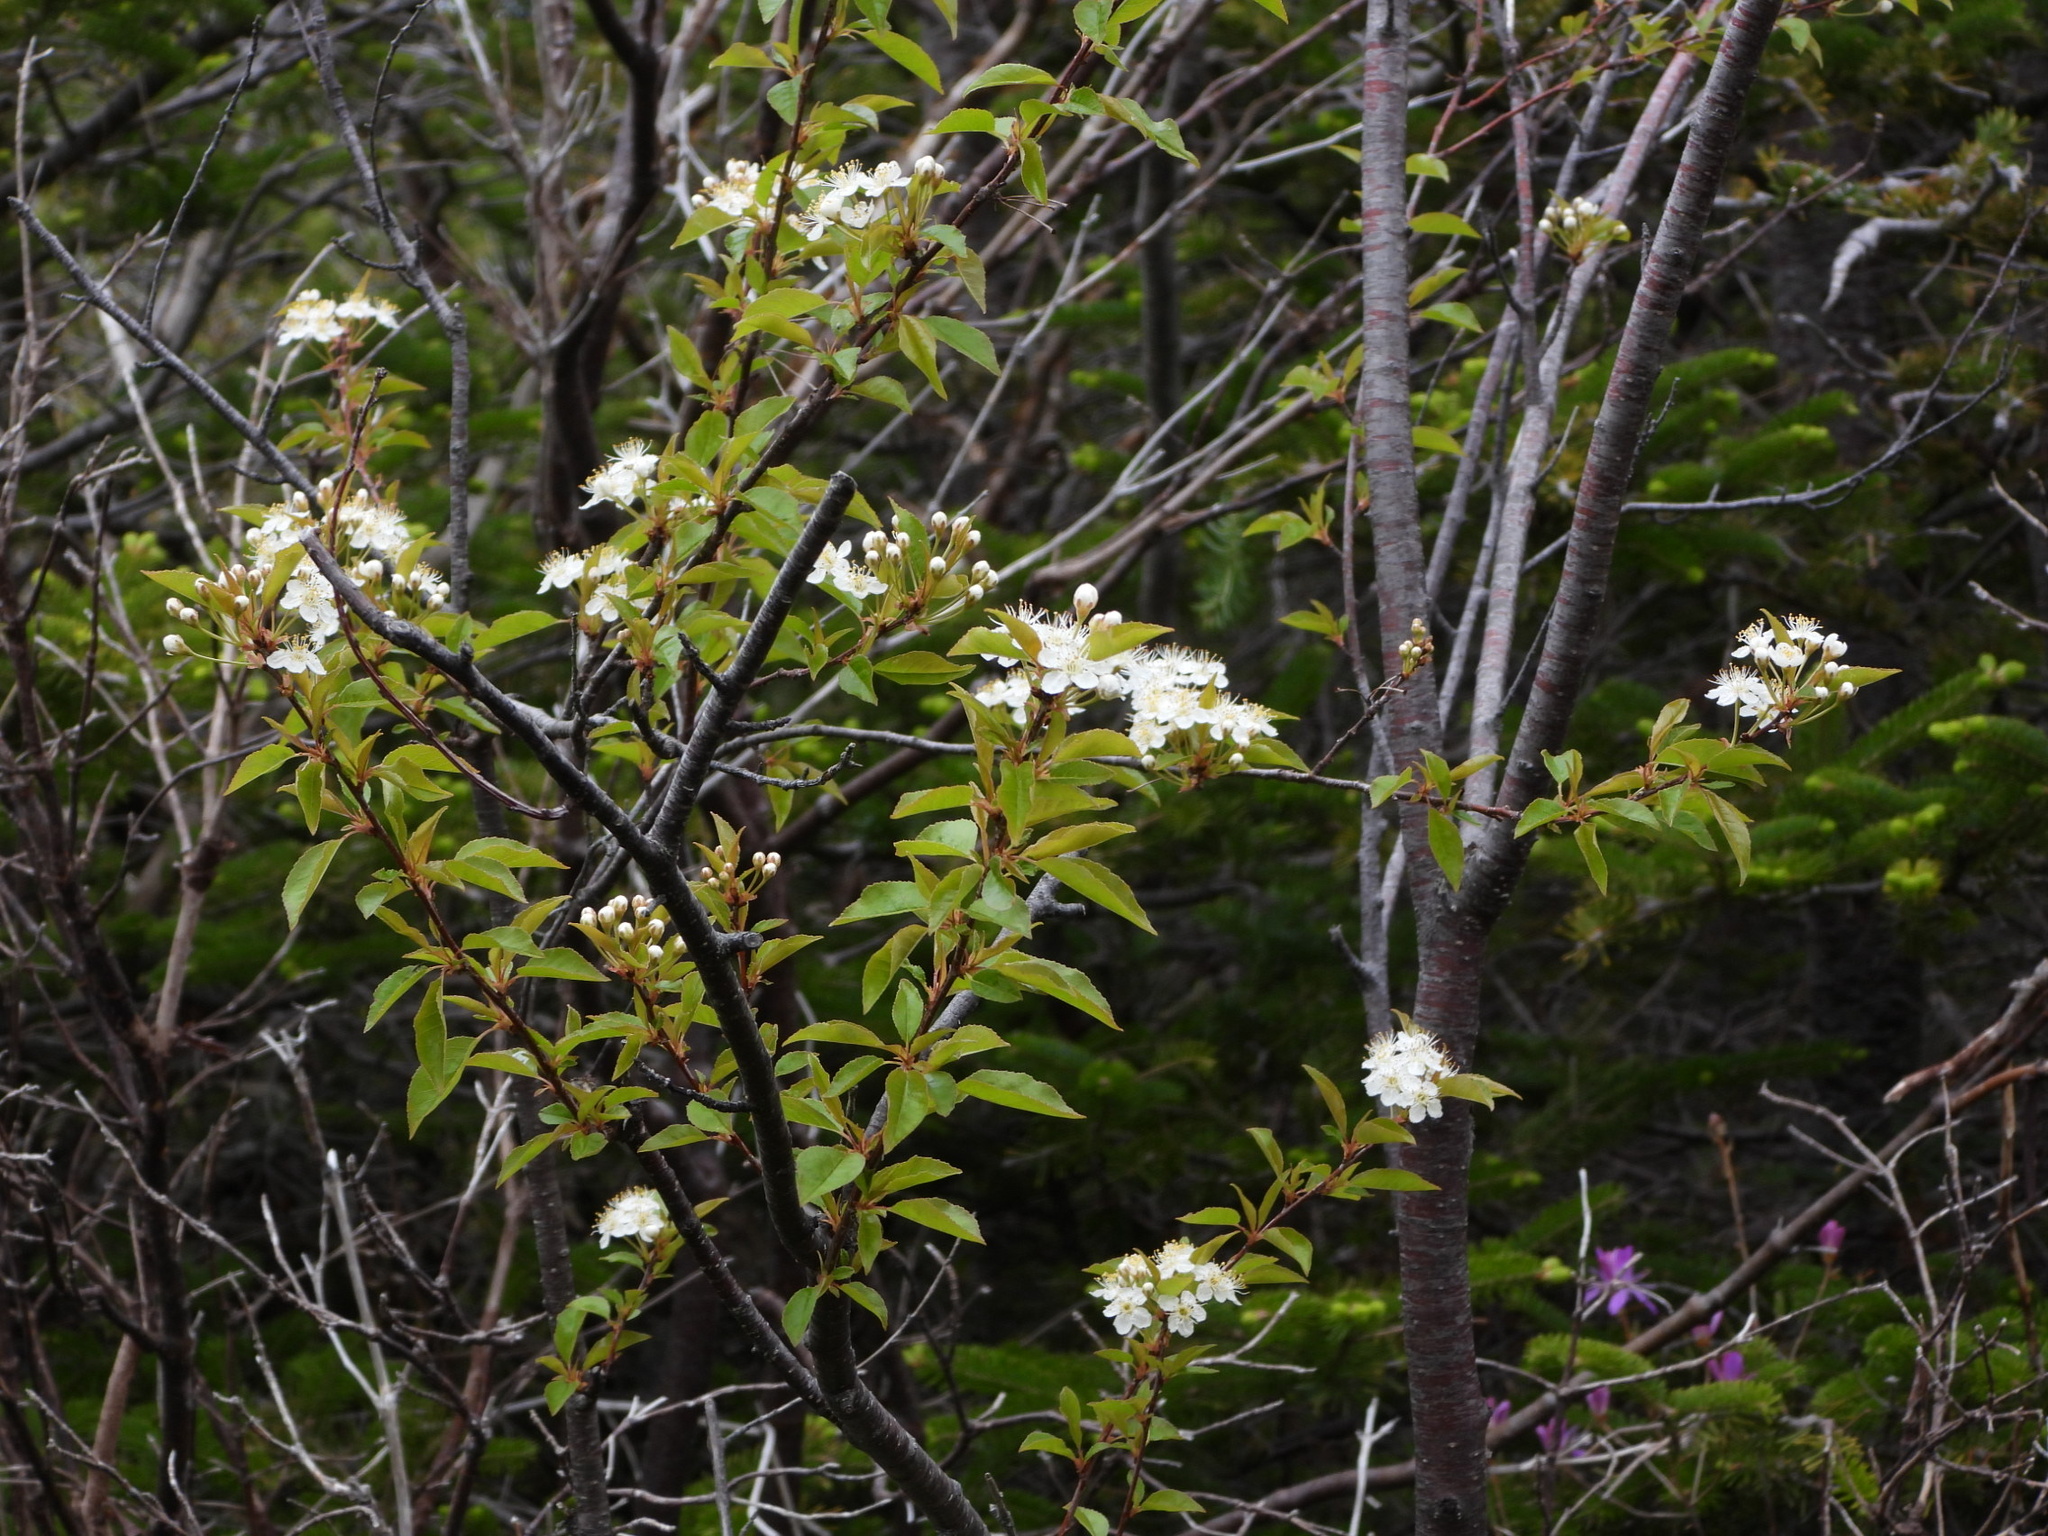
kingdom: Plantae
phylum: Tracheophyta
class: Magnoliopsida
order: Rosales
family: Rosaceae
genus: Prunus
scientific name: Prunus pensylvanica
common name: Pin cherry
